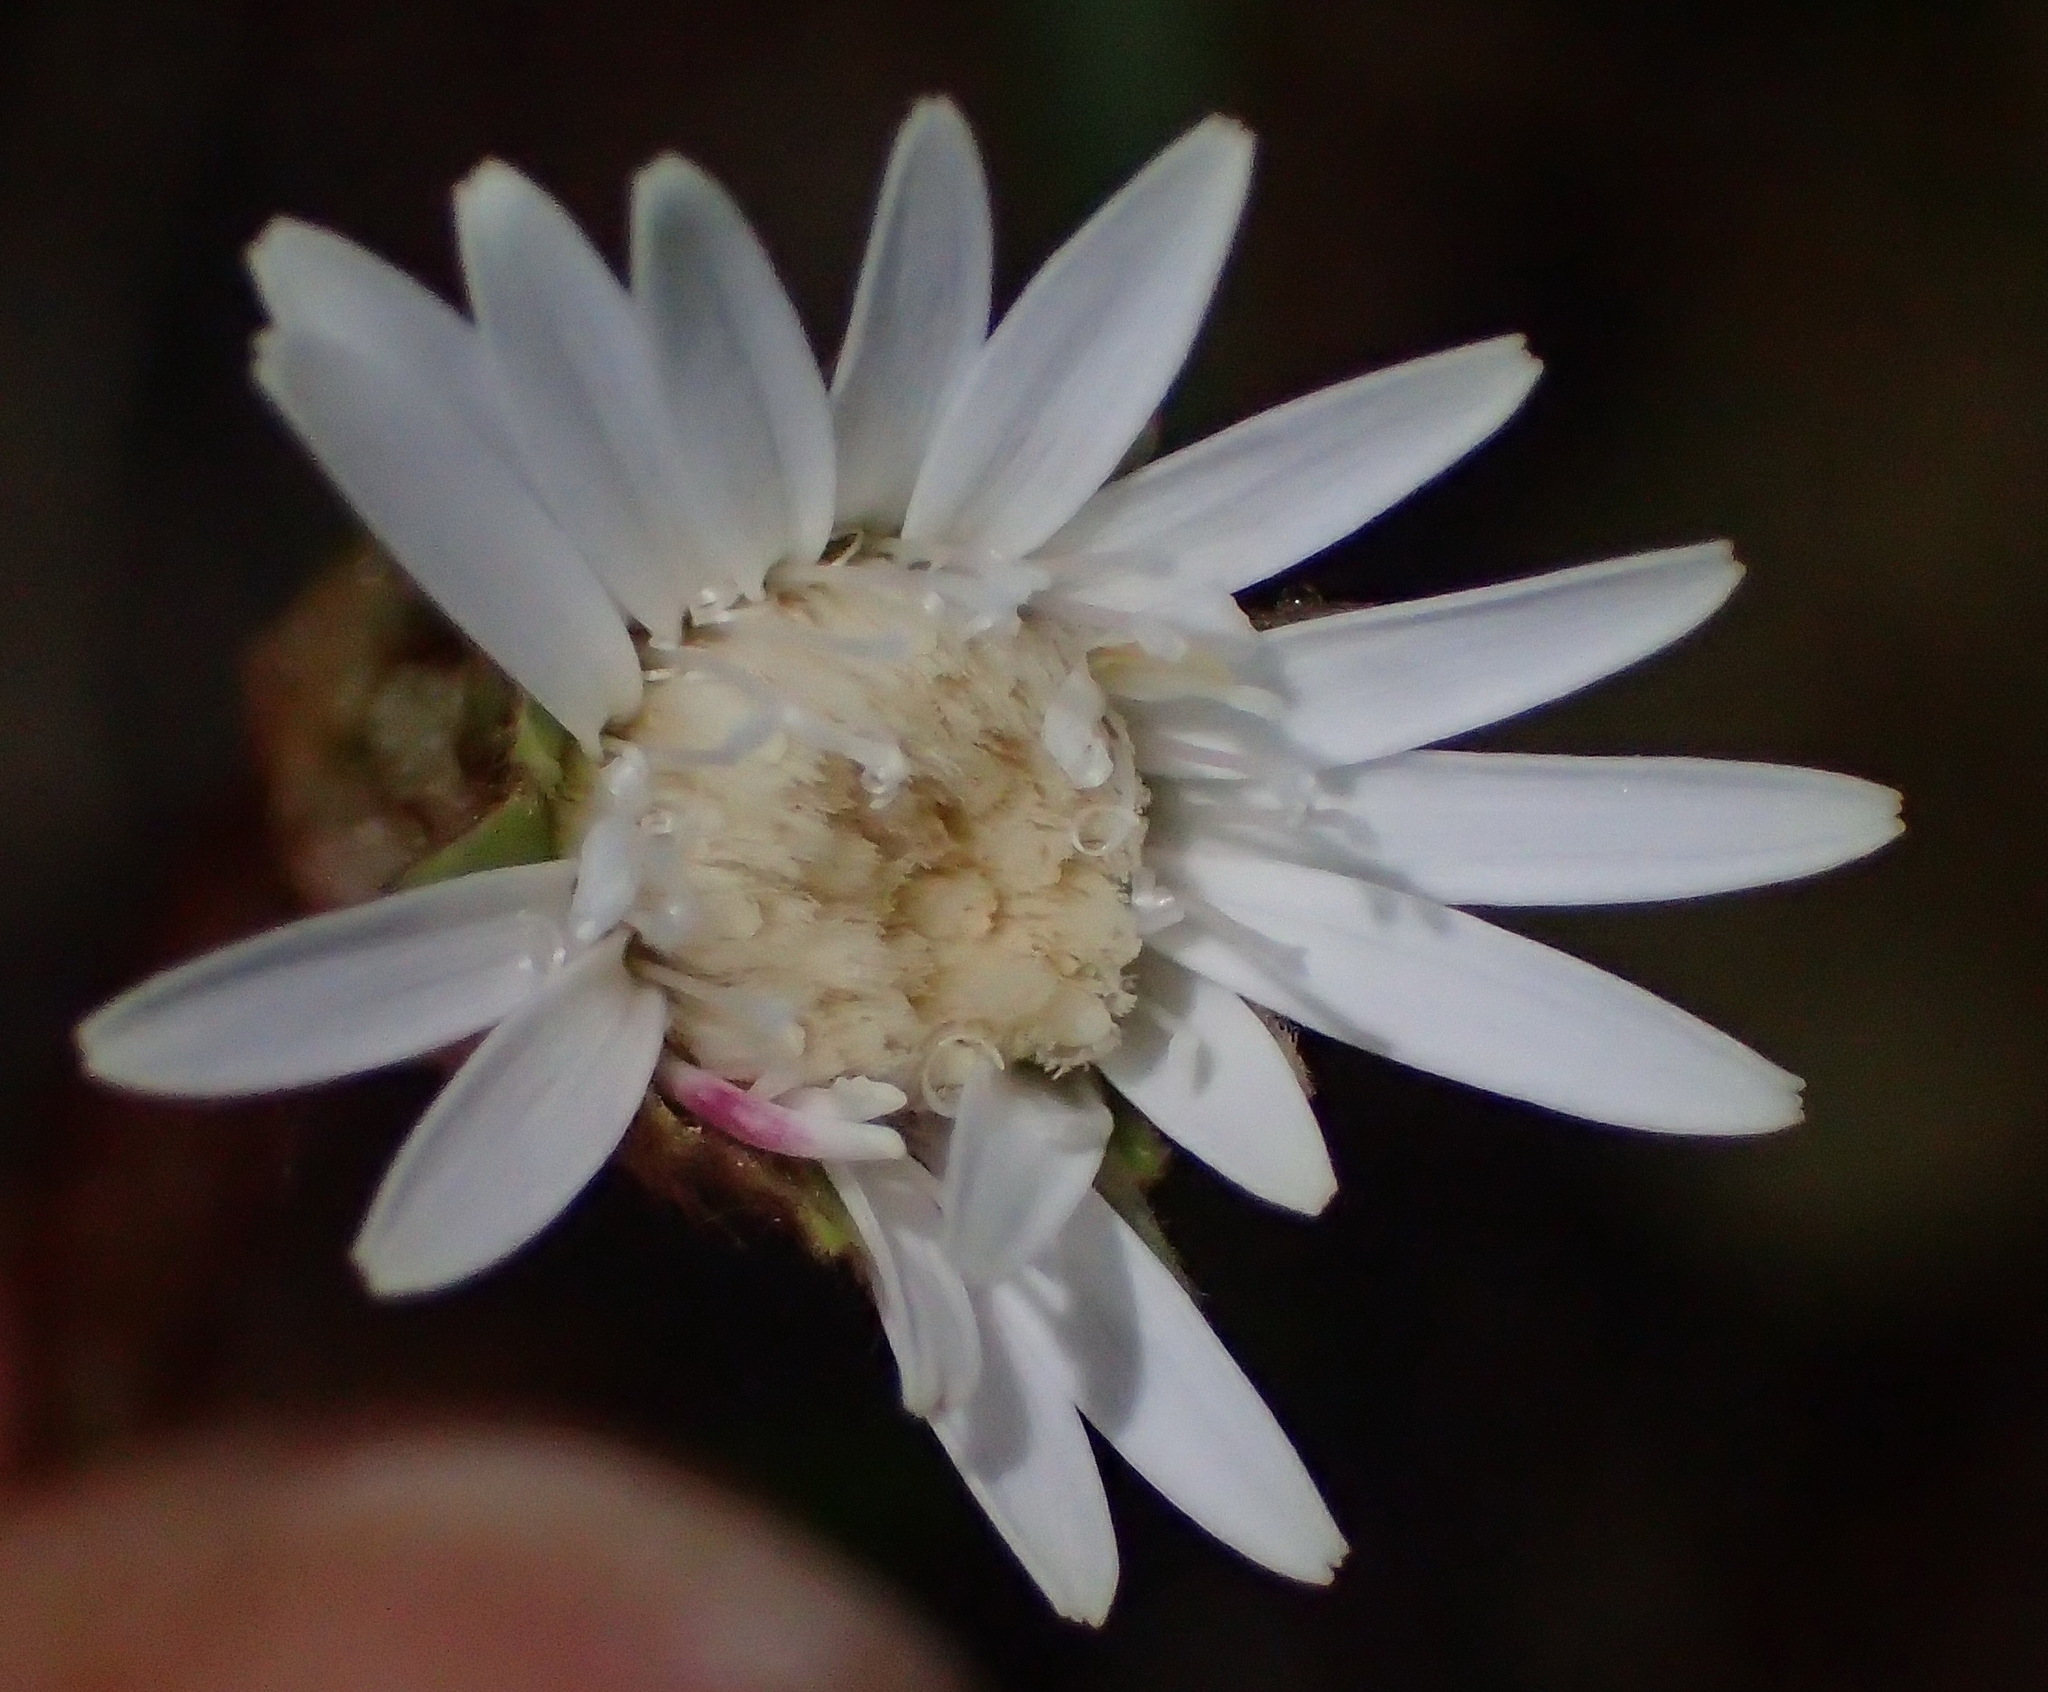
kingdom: Plantae
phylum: Tracheophyta
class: Magnoliopsida
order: Asterales
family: Asteraceae
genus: Piloselloides
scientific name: Piloselloides cordata
